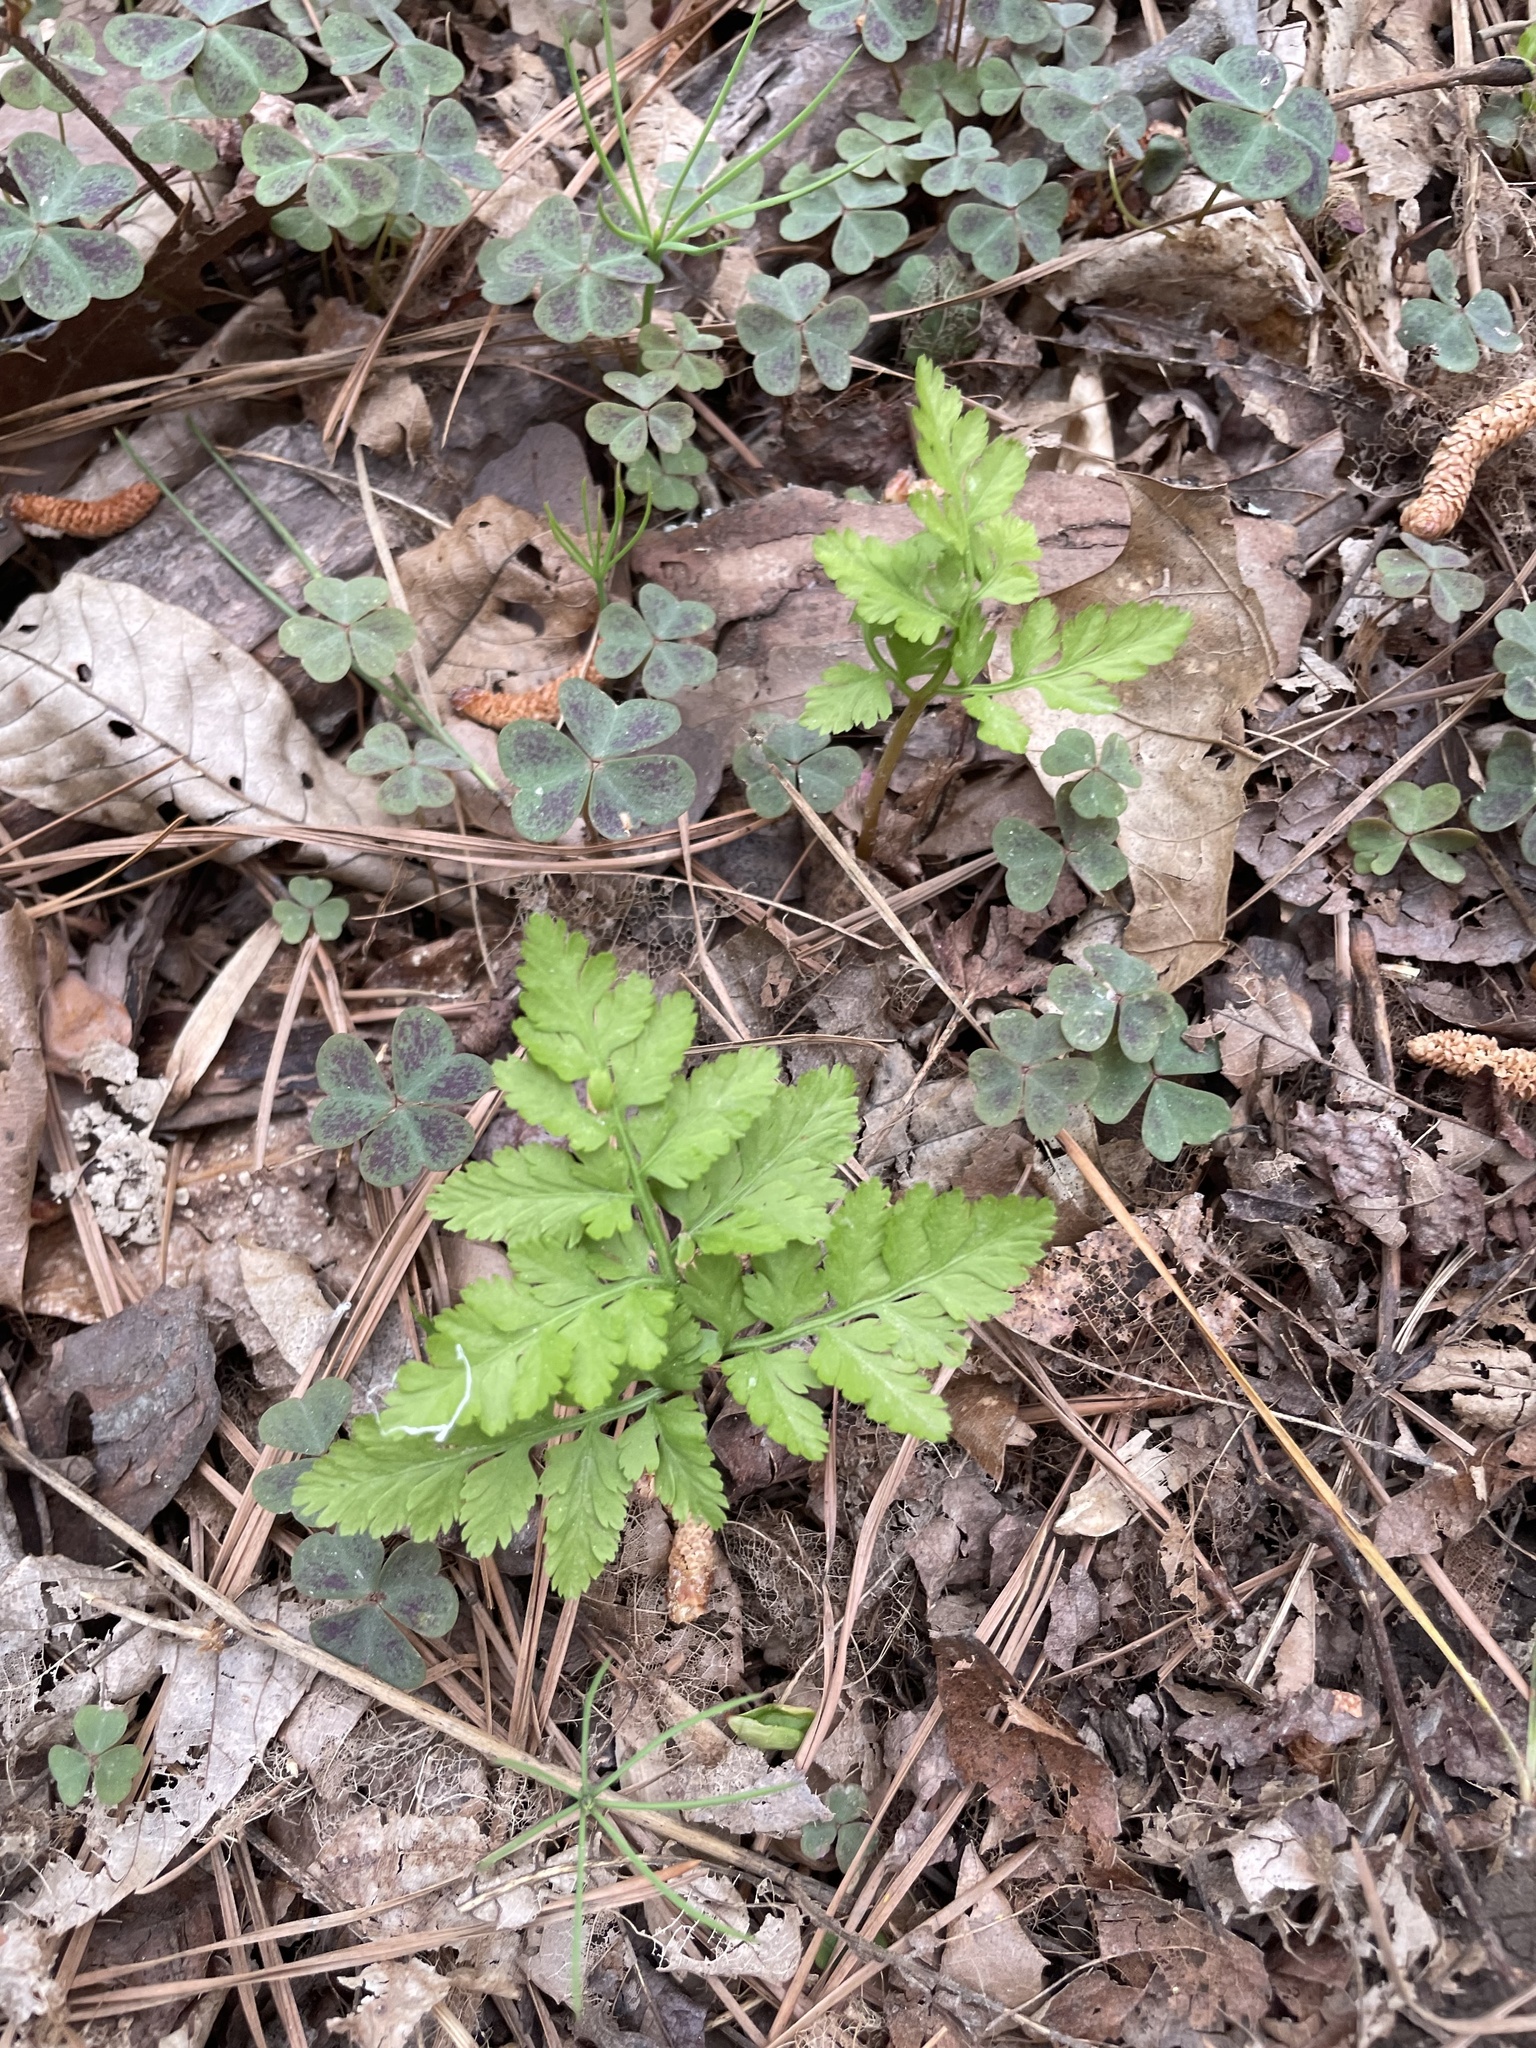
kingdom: Plantae
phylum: Tracheophyta
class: Polypodiopsida
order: Ophioglossales
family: Ophioglossaceae
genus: Botrypus
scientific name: Botrypus virginianus
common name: Common grapefern
